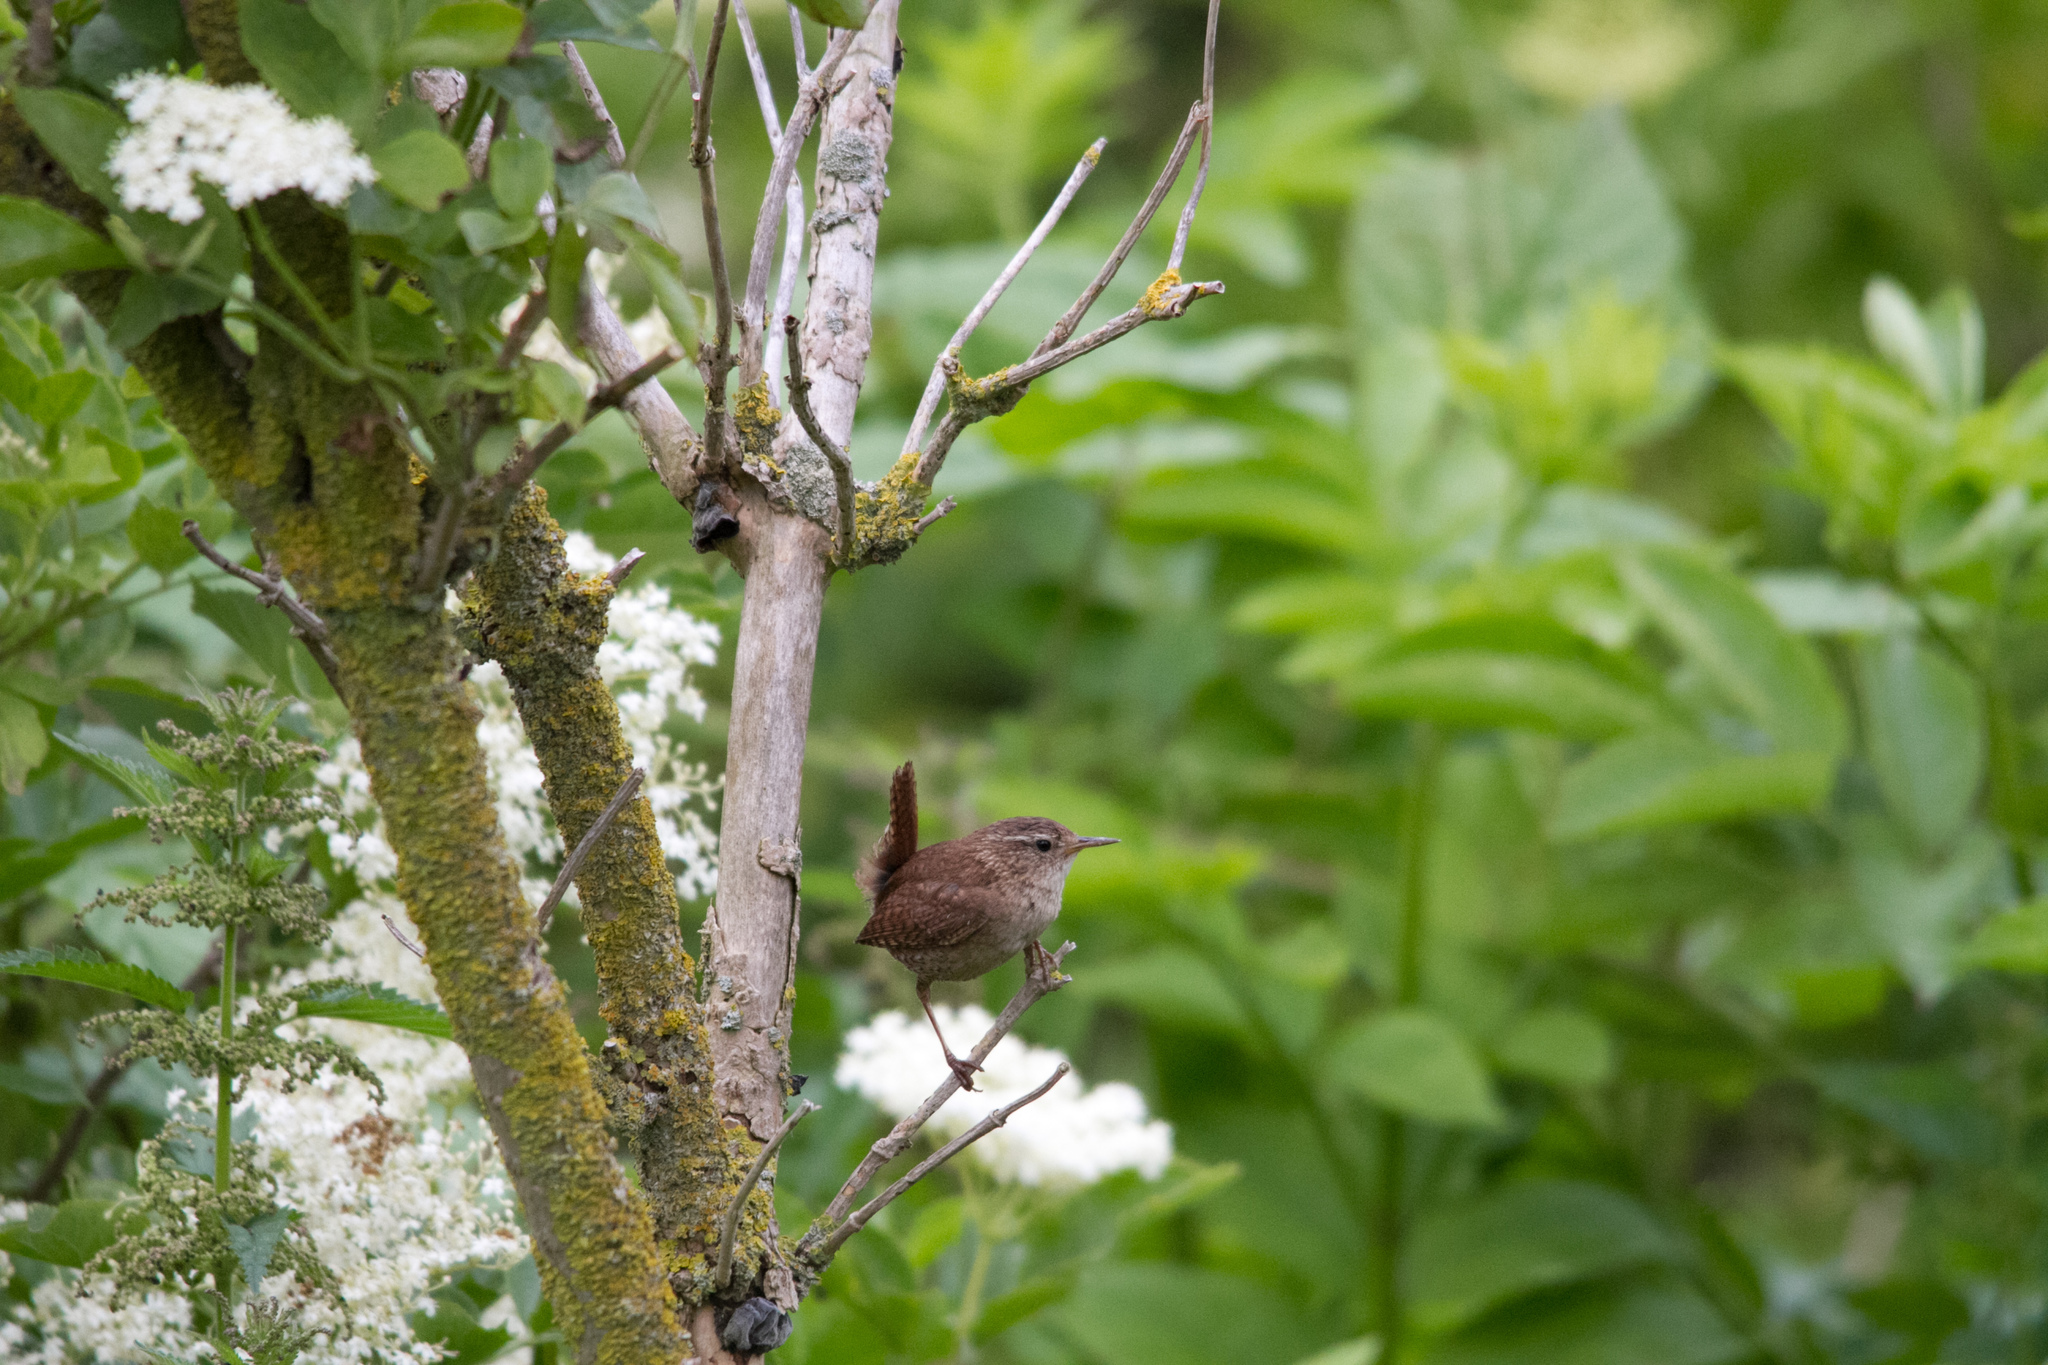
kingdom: Animalia
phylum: Chordata
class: Aves
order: Passeriformes
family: Troglodytidae
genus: Troglodytes
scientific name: Troglodytes troglodytes
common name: Eurasian wren
